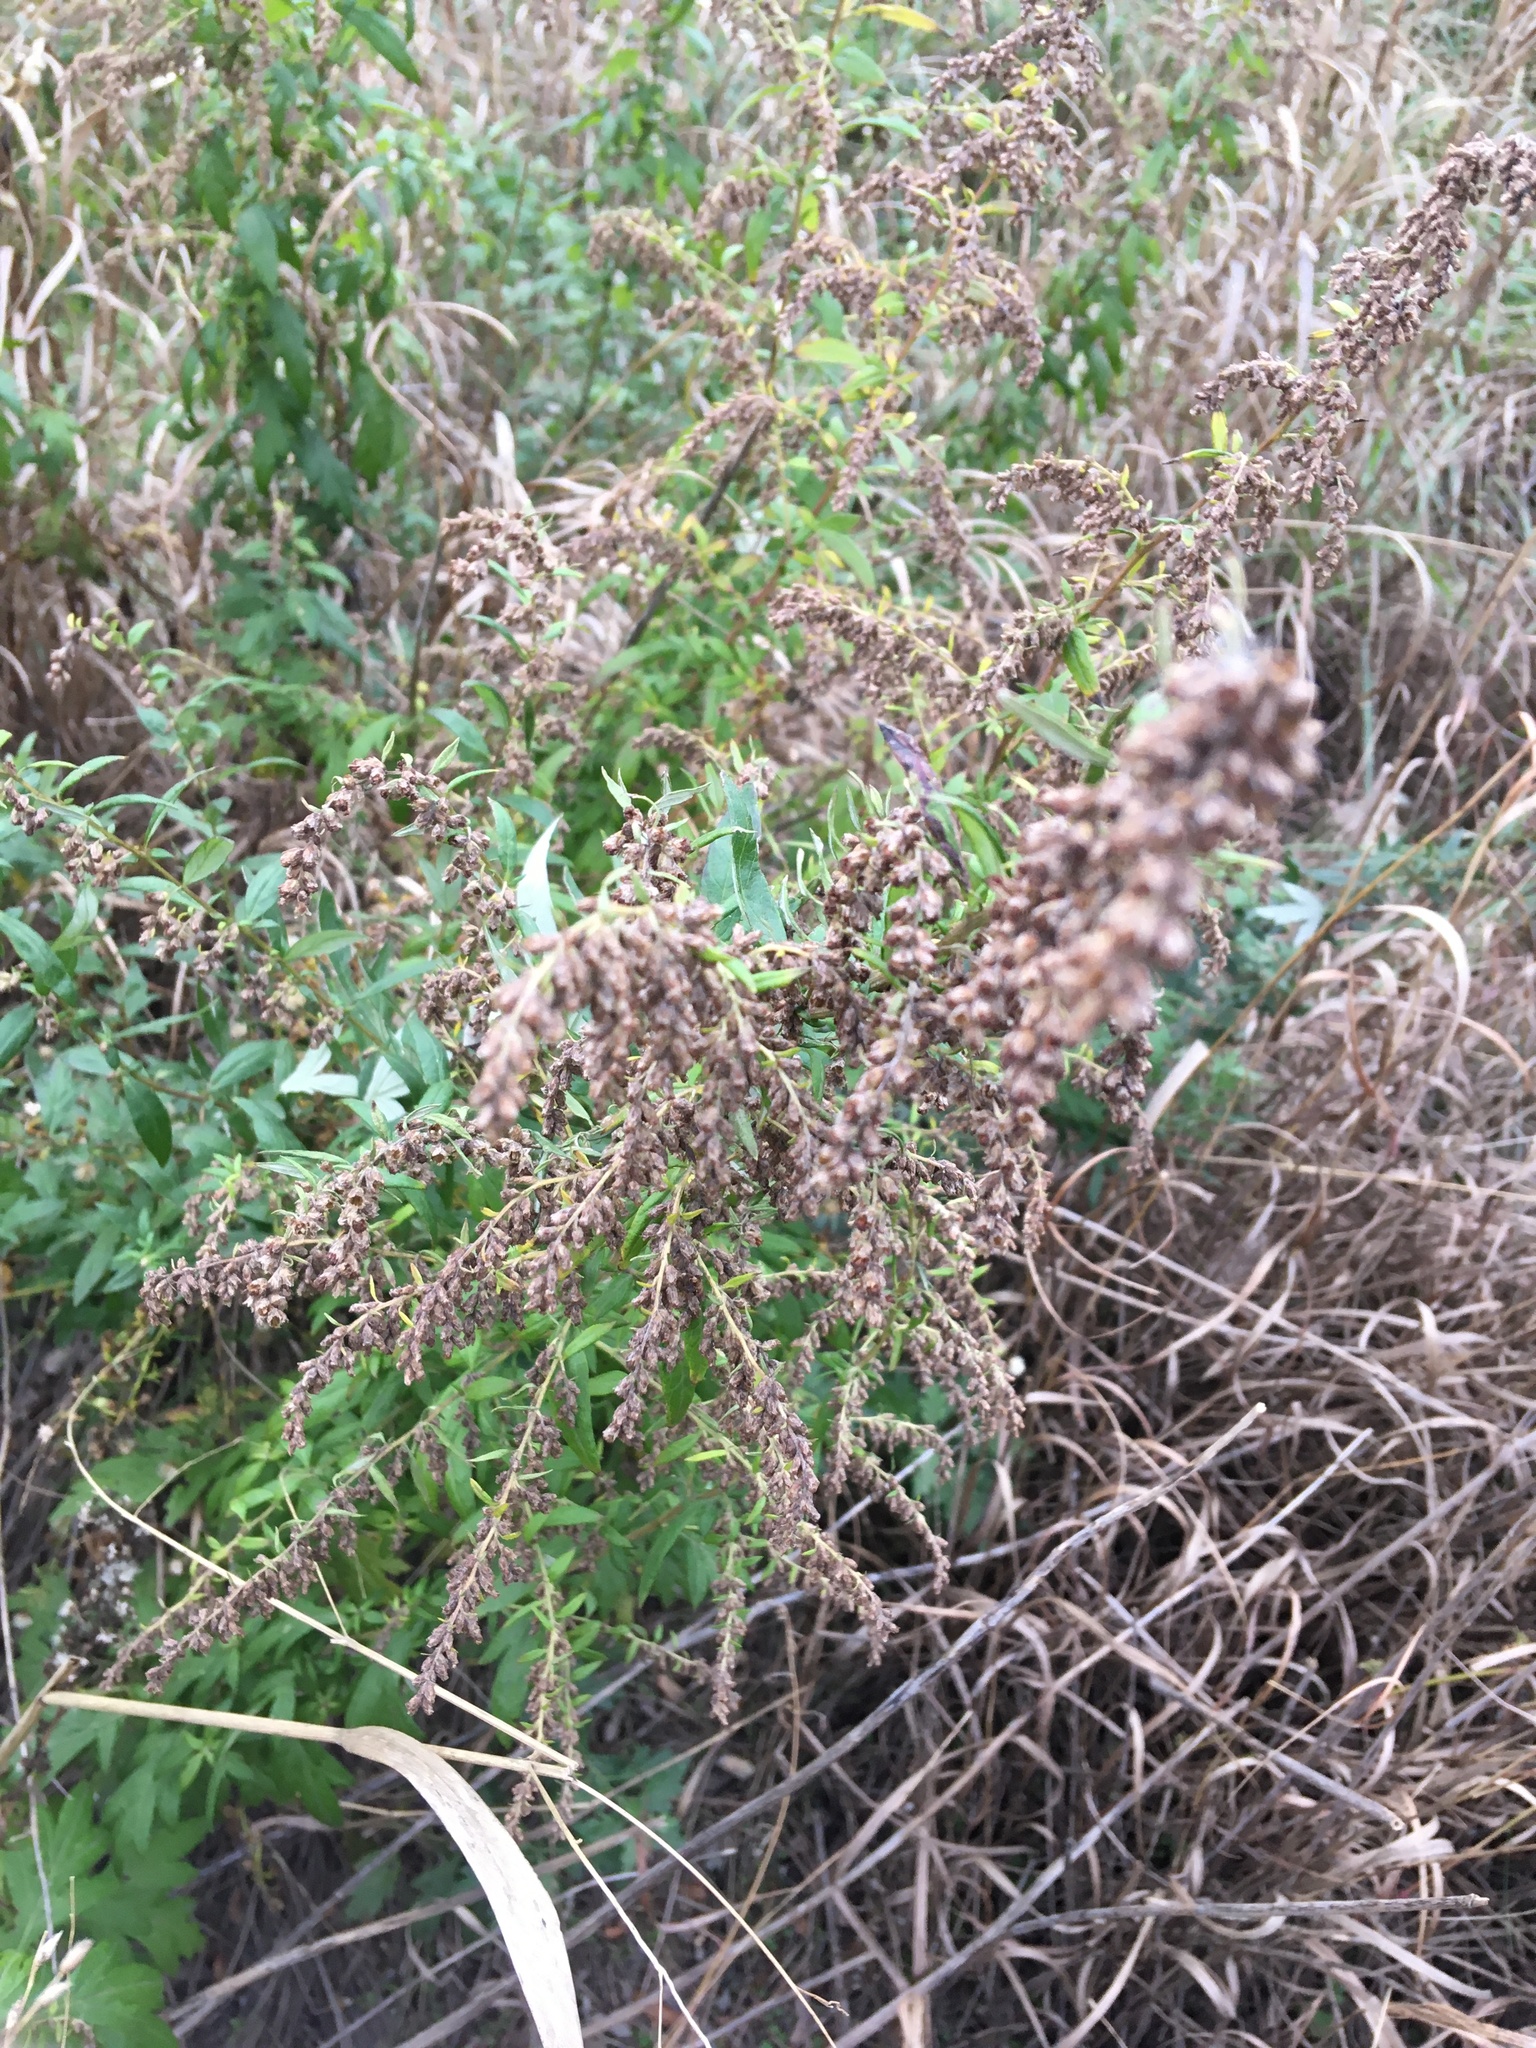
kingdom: Plantae
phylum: Tracheophyta
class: Magnoliopsida
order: Asterales
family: Asteraceae
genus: Artemisia
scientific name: Artemisia vulgaris
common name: Mugwort
